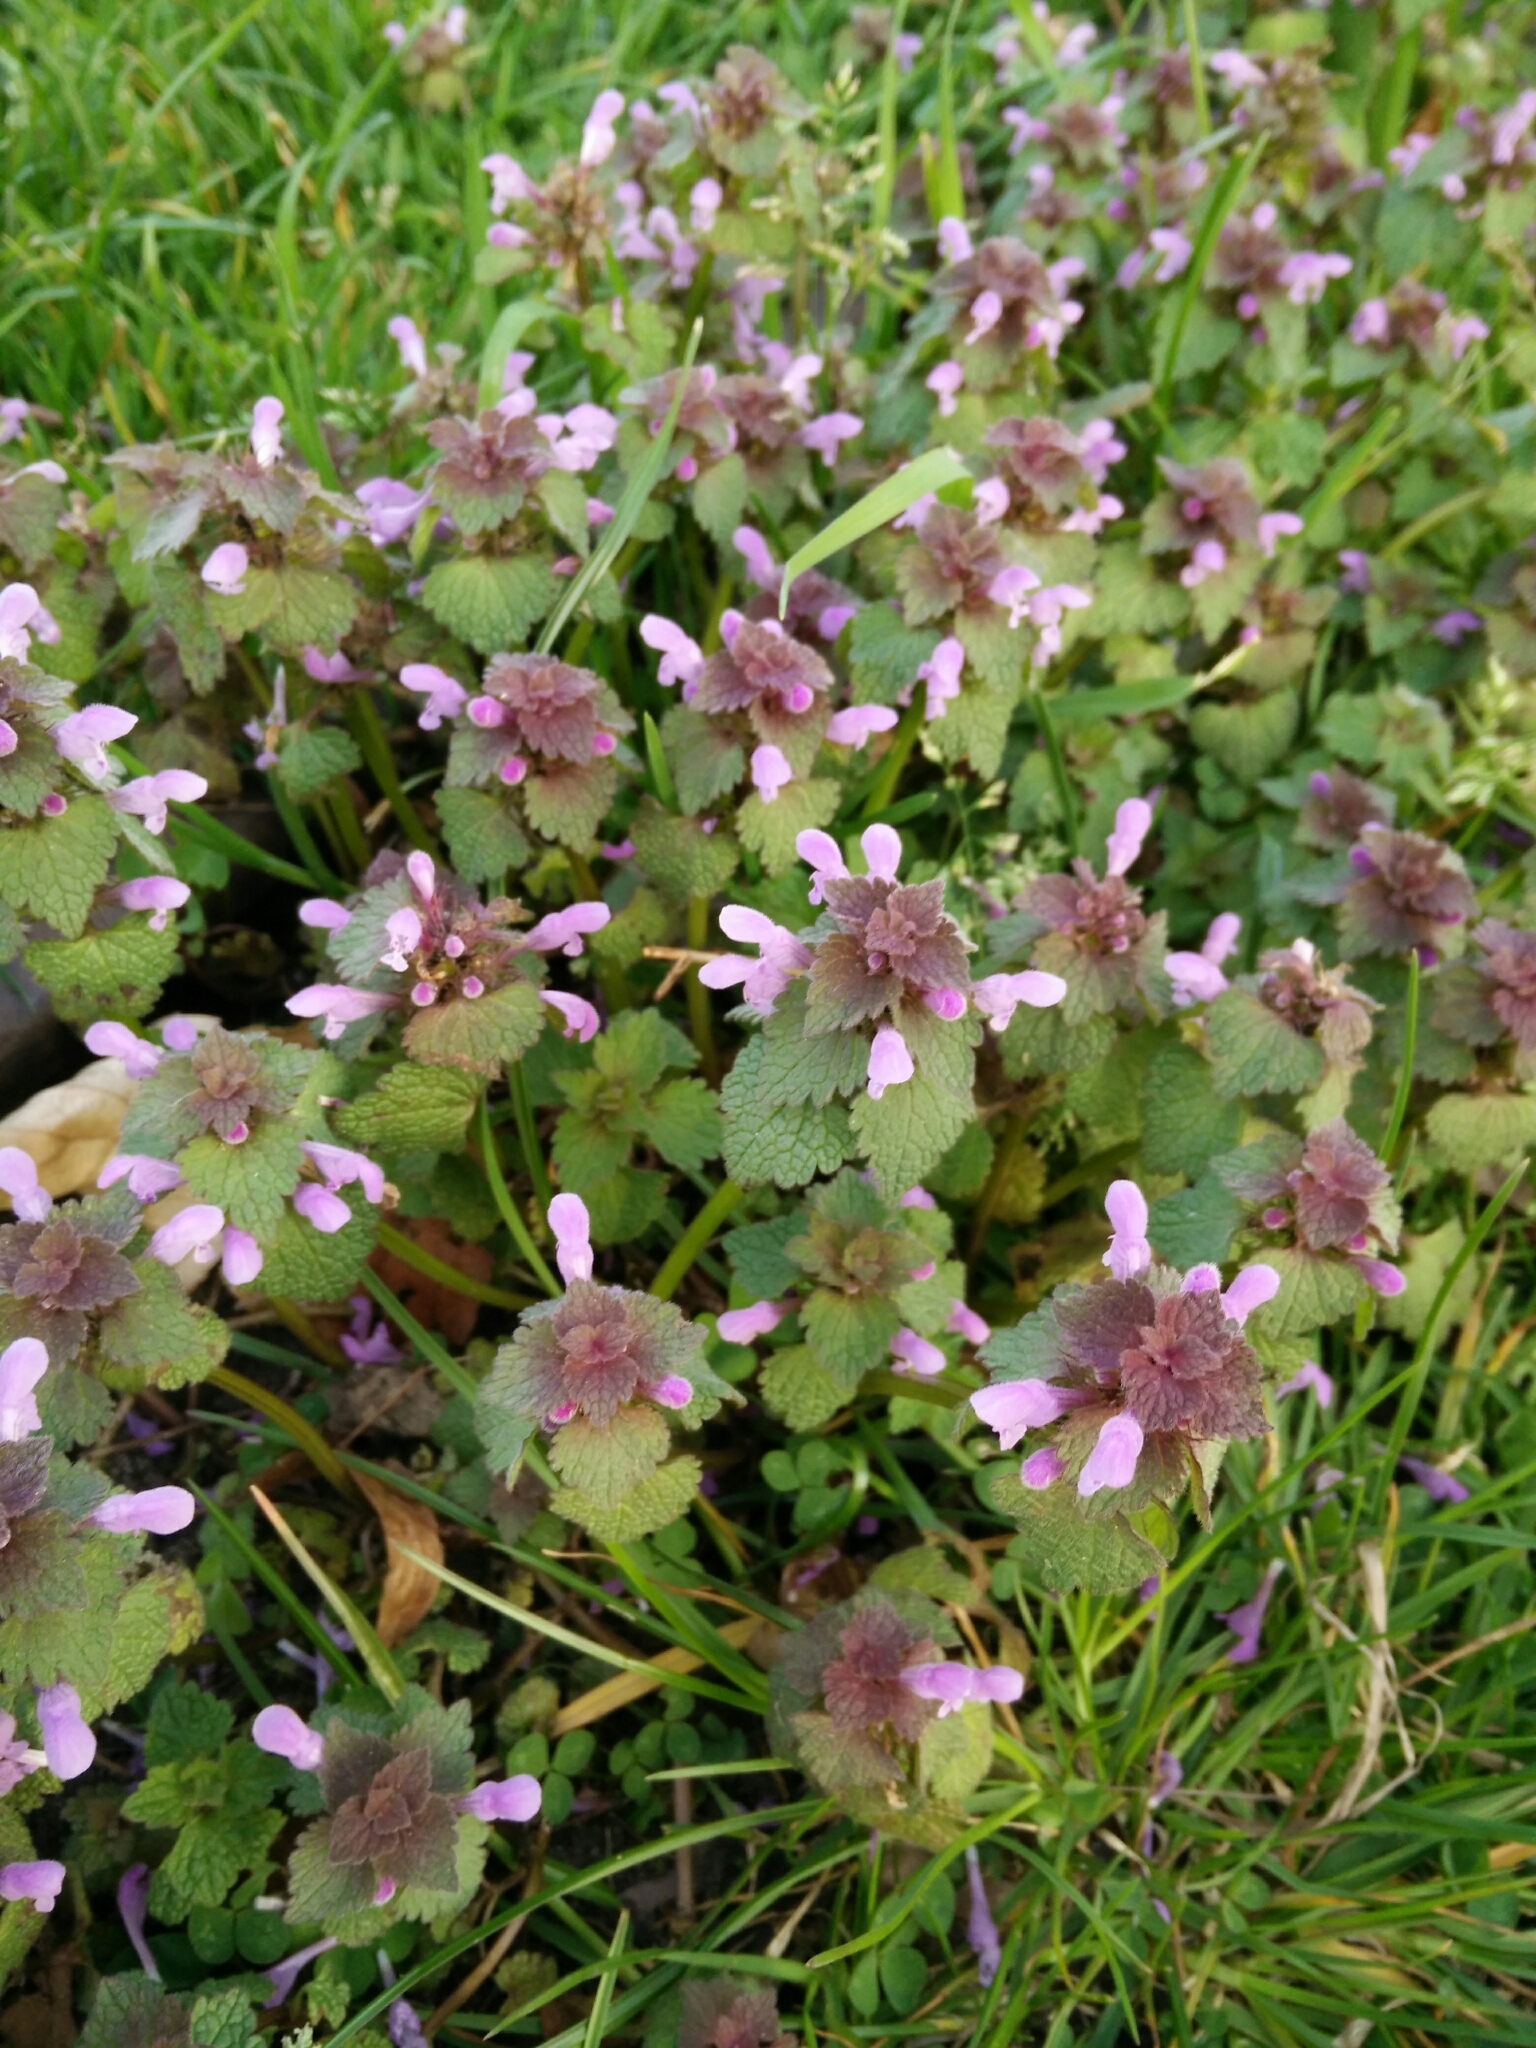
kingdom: Plantae
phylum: Tracheophyta
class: Magnoliopsida
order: Lamiales
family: Lamiaceae
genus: Lamium
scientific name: Lamium purpureum
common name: Red dead-nettle
